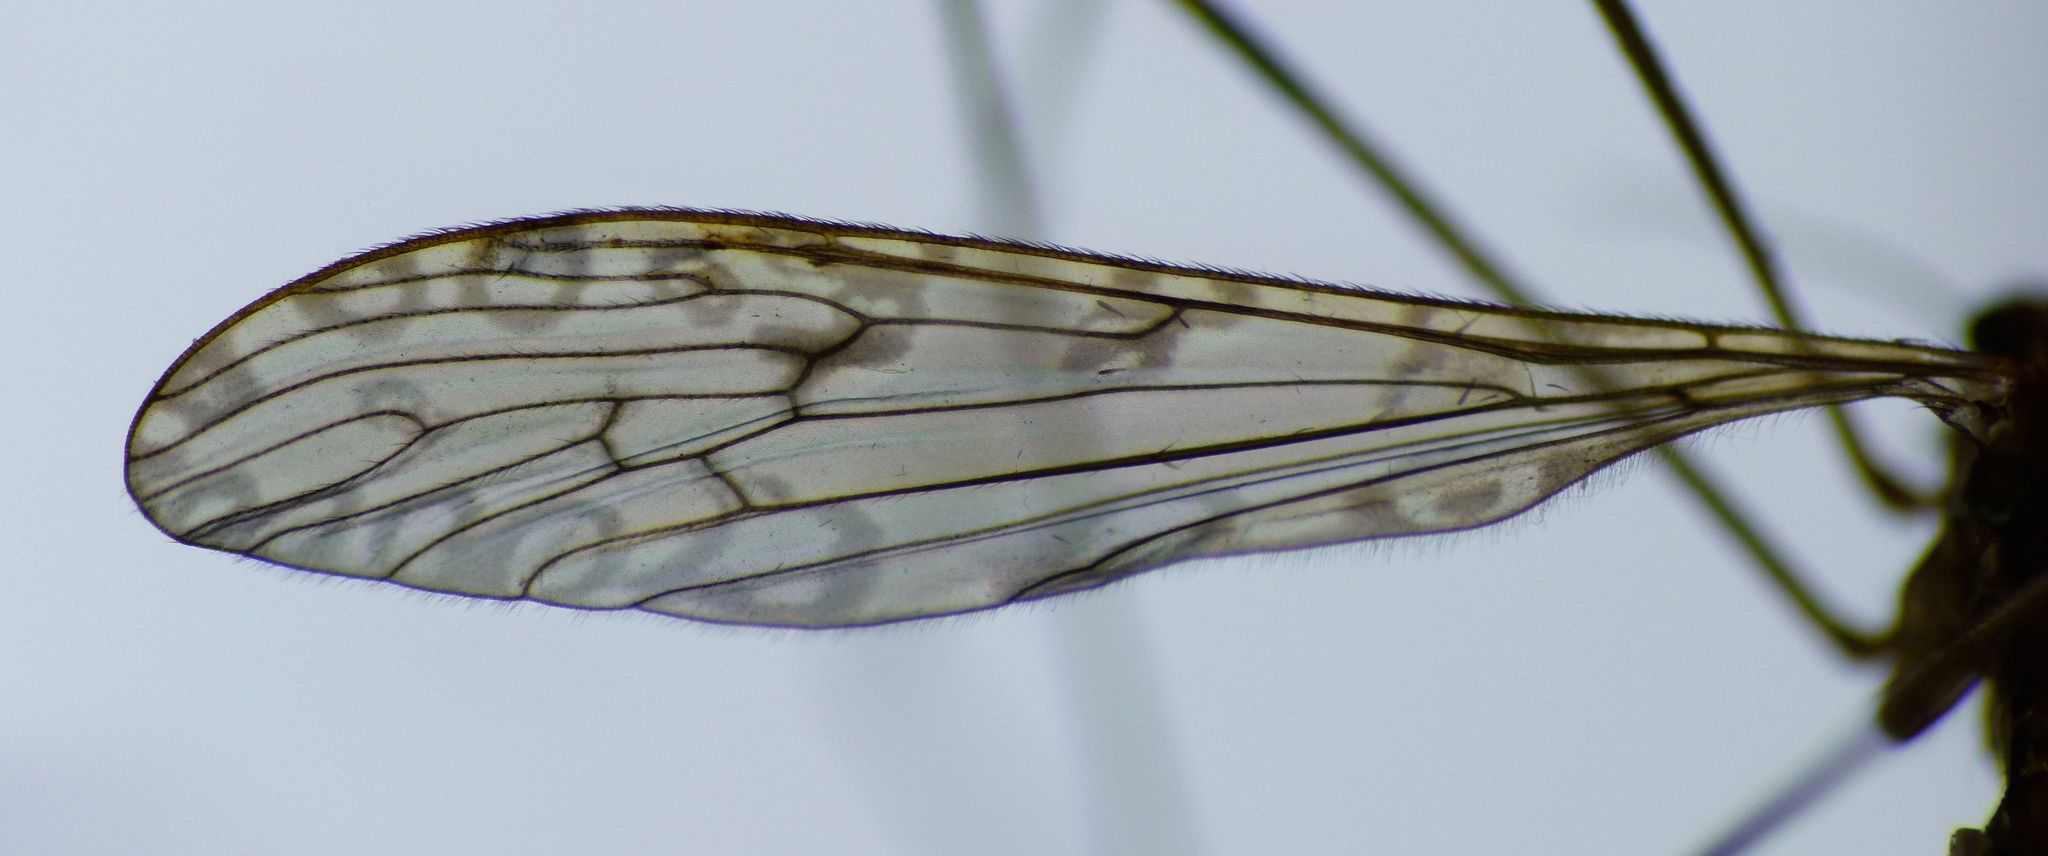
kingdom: Animalia
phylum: Arthropoda
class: Insecta
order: Diptera
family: Limoniidae
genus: Austrolimnophila
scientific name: Austrolimnophila stewartiae
